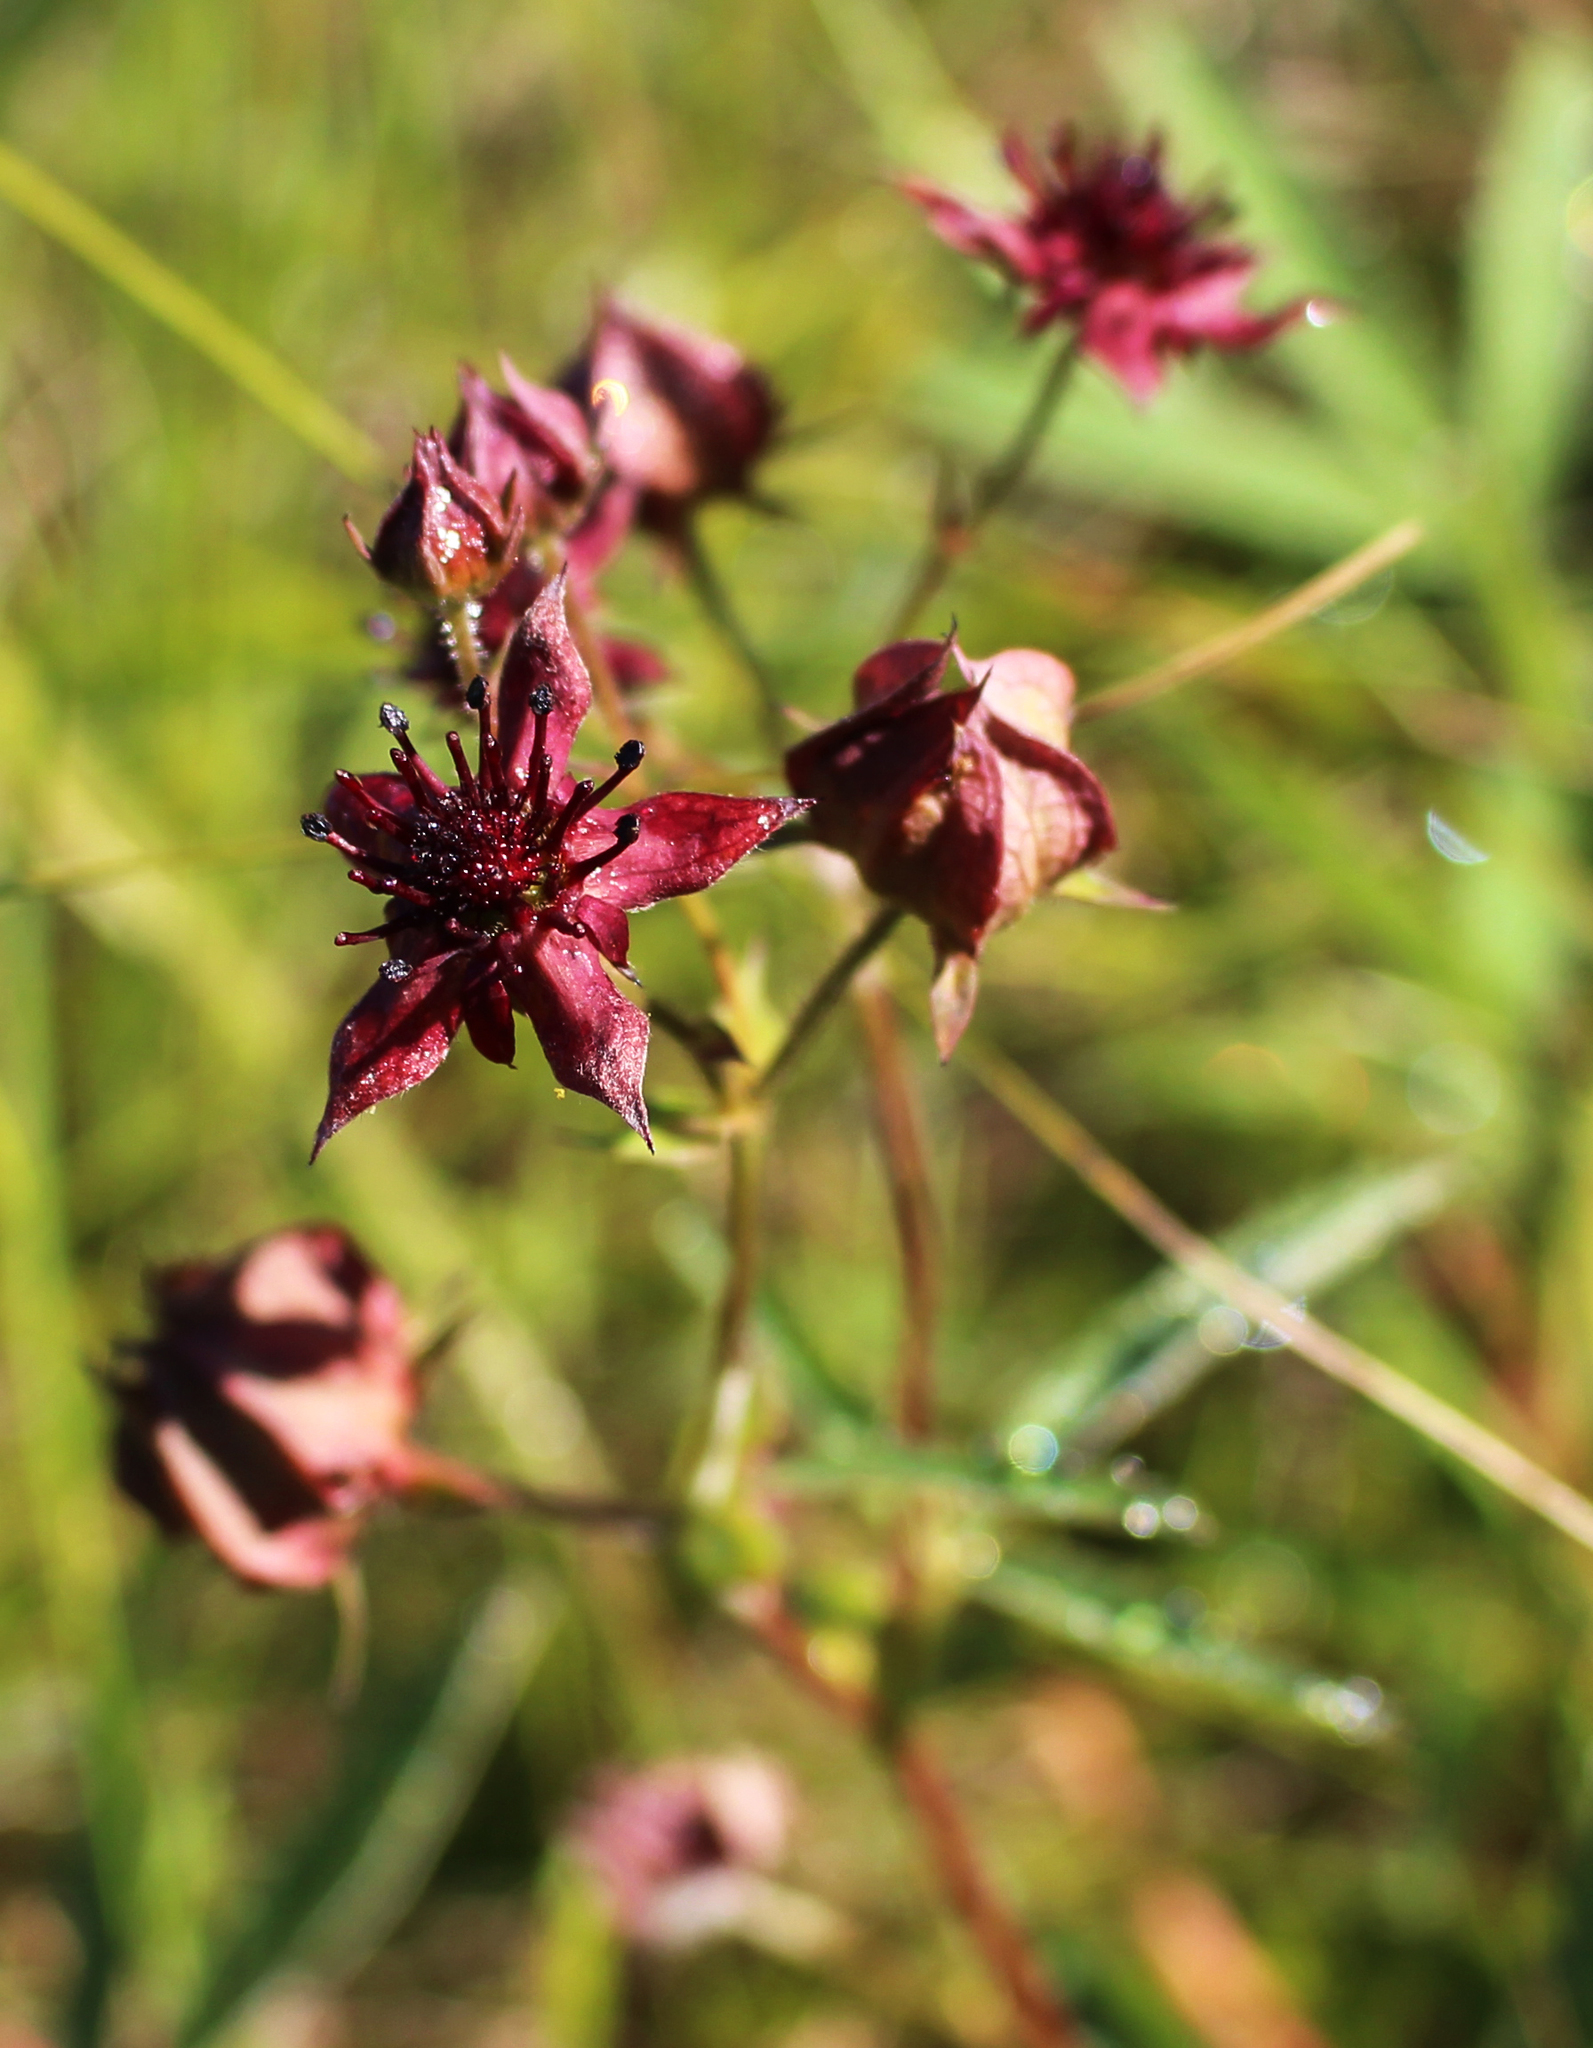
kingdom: Plantae
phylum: Tracheophyta
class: Magnoliopsida
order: Rosales
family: Rosaceae
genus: Comarum
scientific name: Comarum palustre
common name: Marsh cinquefoil
